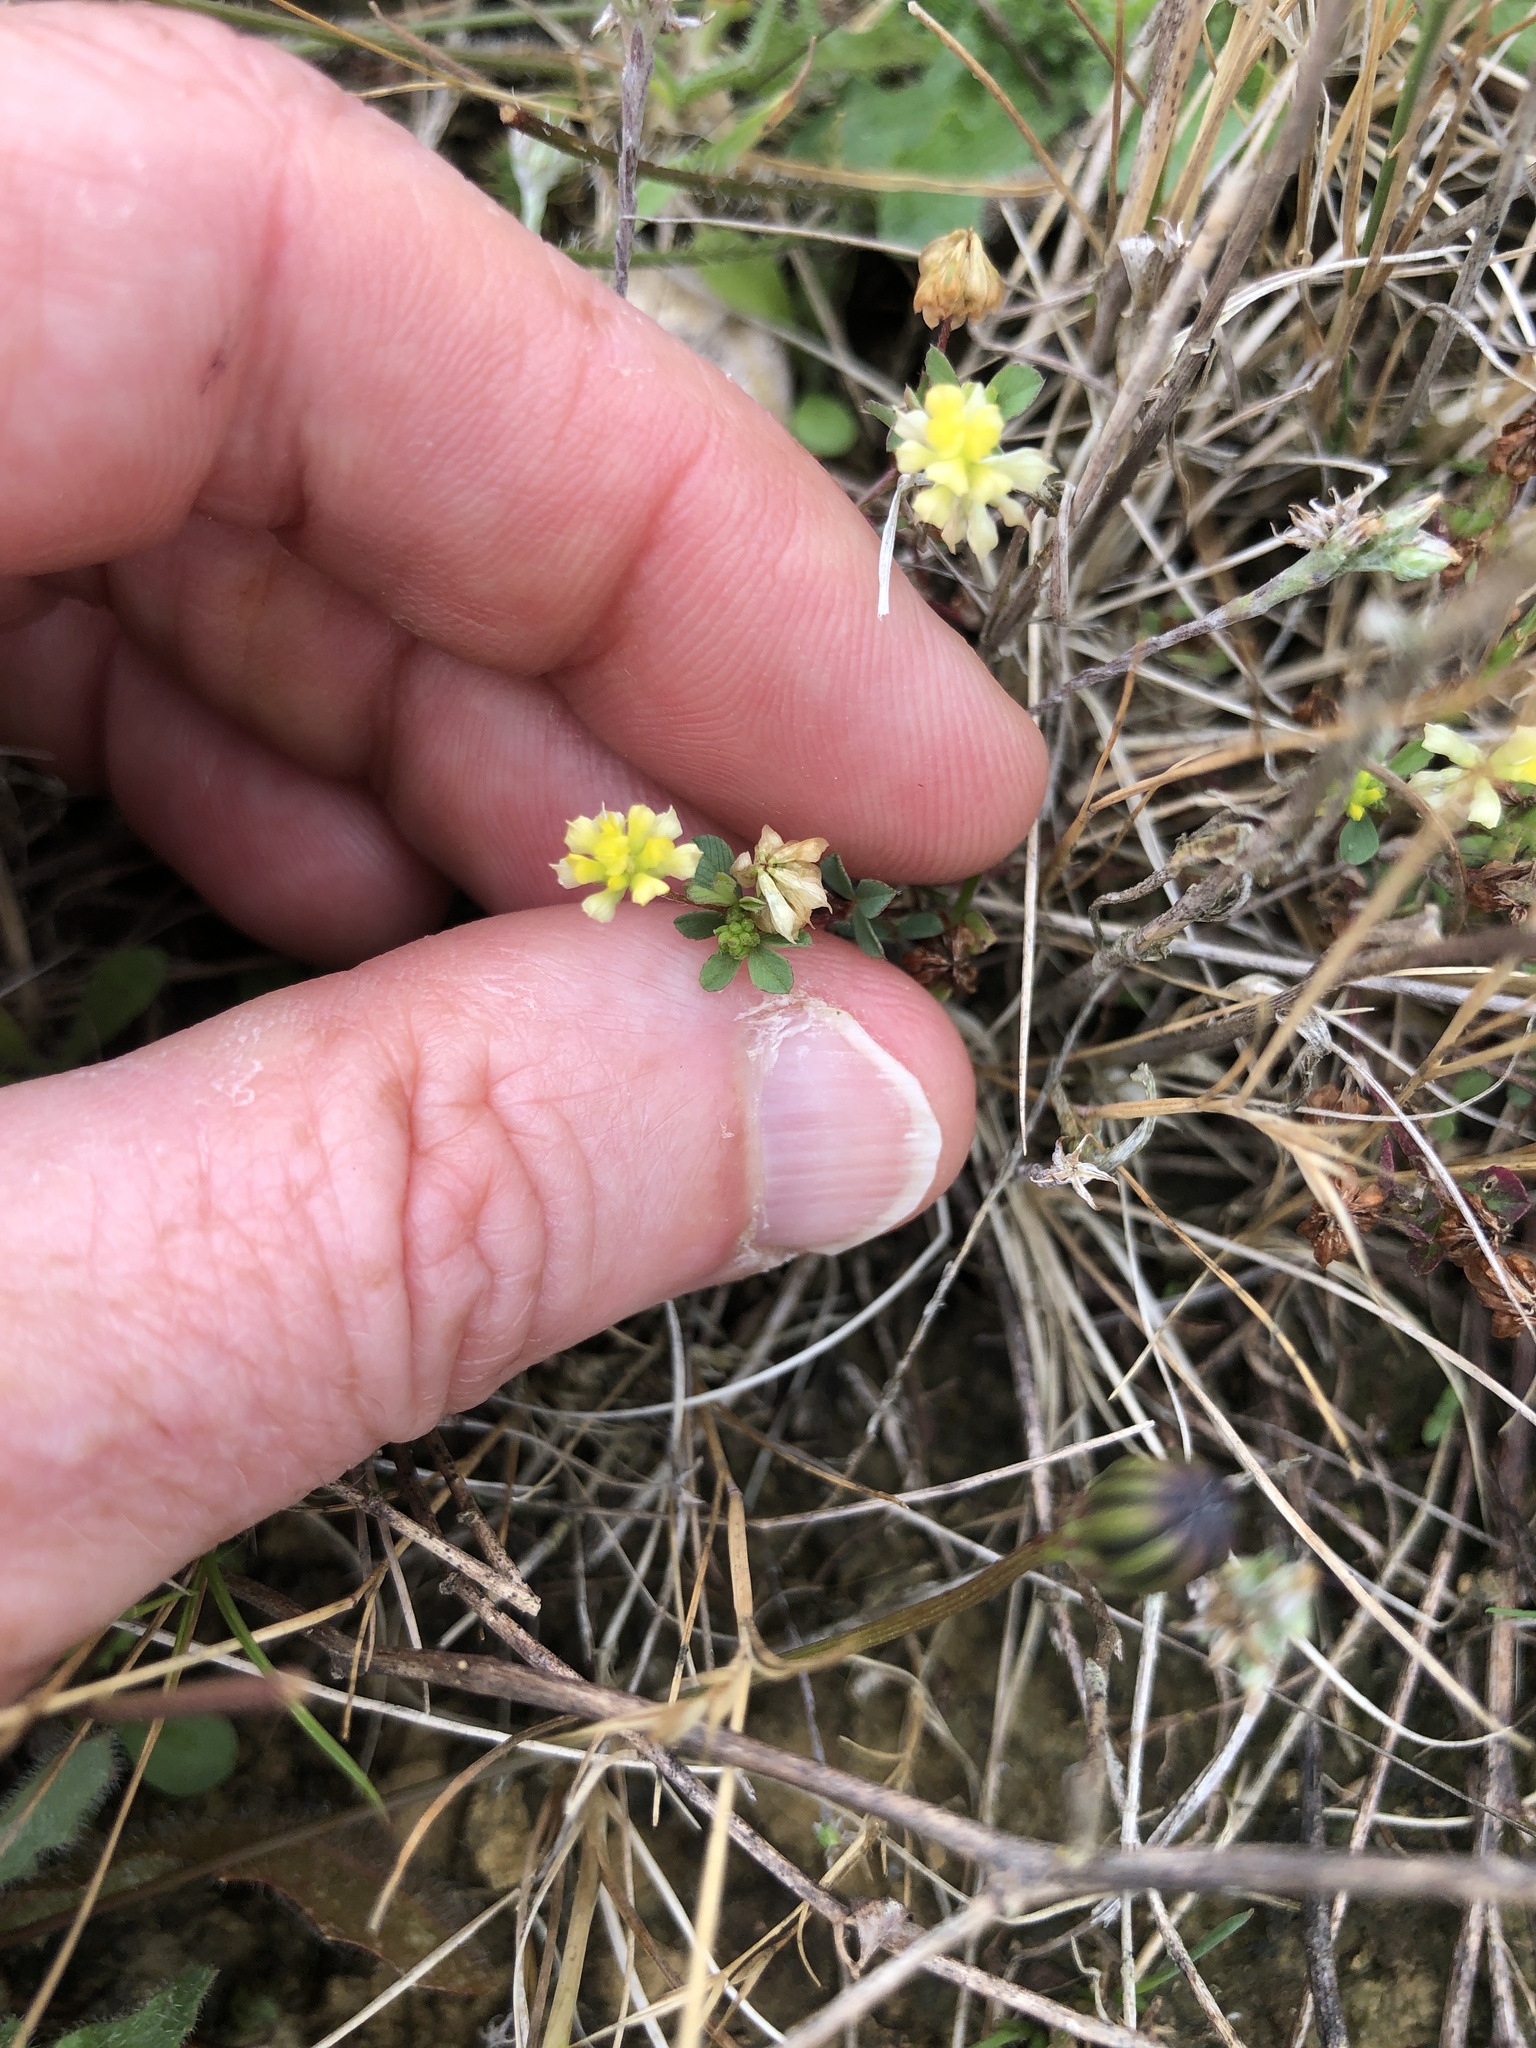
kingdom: Plantae
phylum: Tracheophyta
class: Magnoliopsida
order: Fabales
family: Fabaceae
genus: Trifolium
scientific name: Trifolium dubium
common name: Suckling clover
